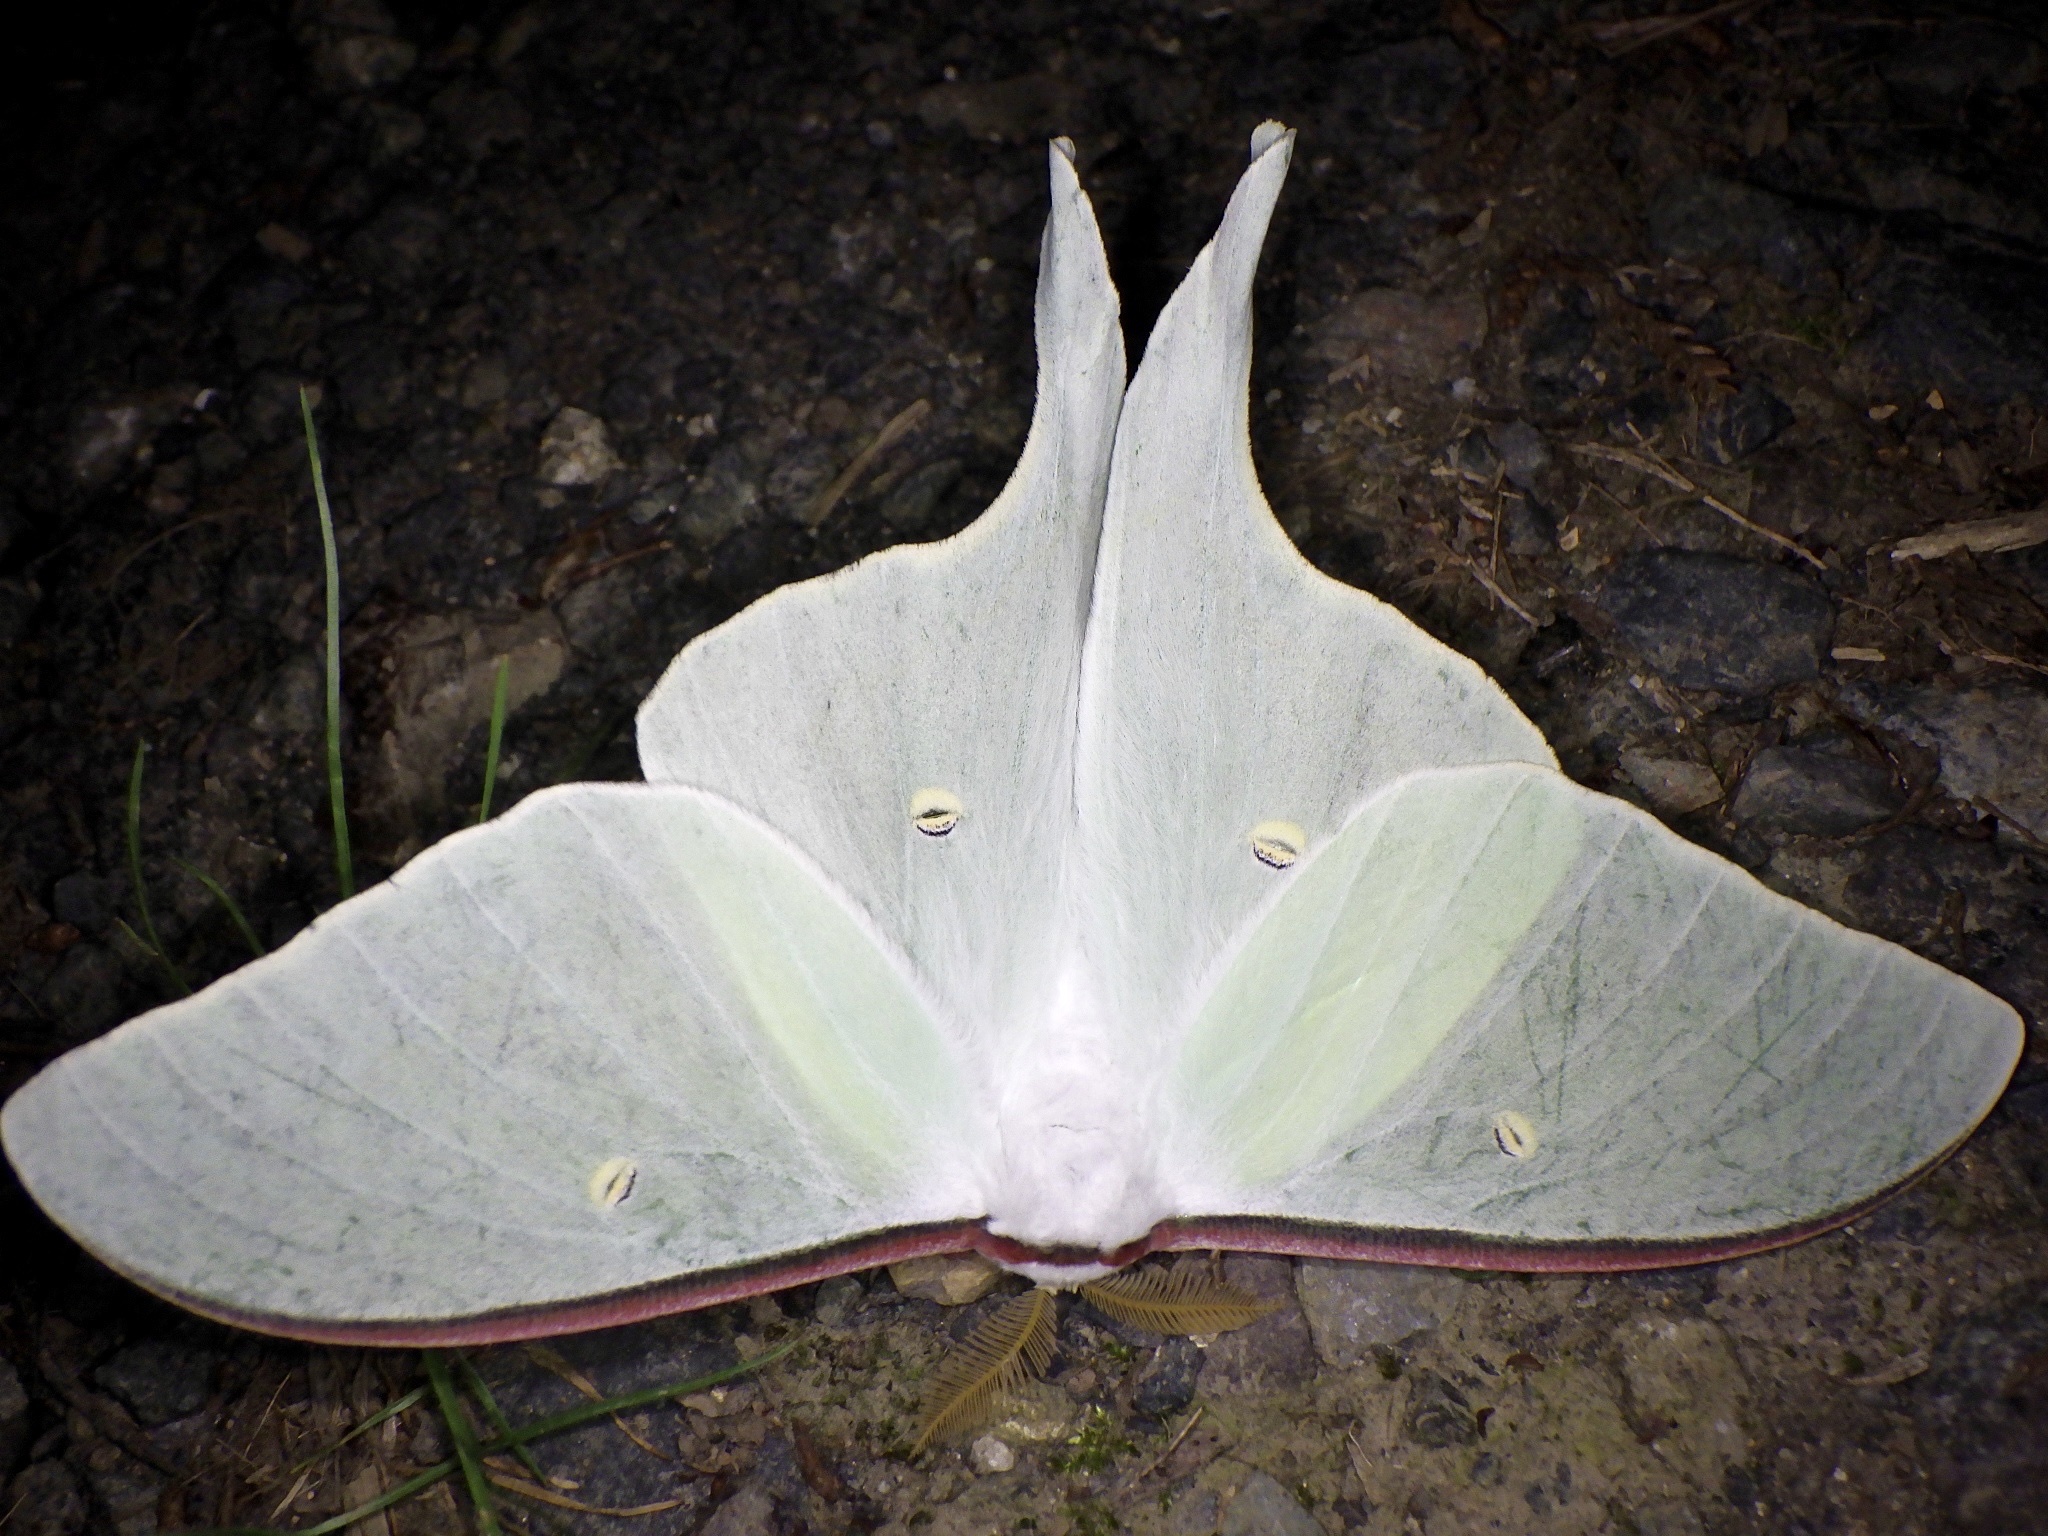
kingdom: Animalia
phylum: Arthropoda
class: Insecta
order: Lepidoptera
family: Saturniidae
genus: Actias
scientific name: Actias aliena
